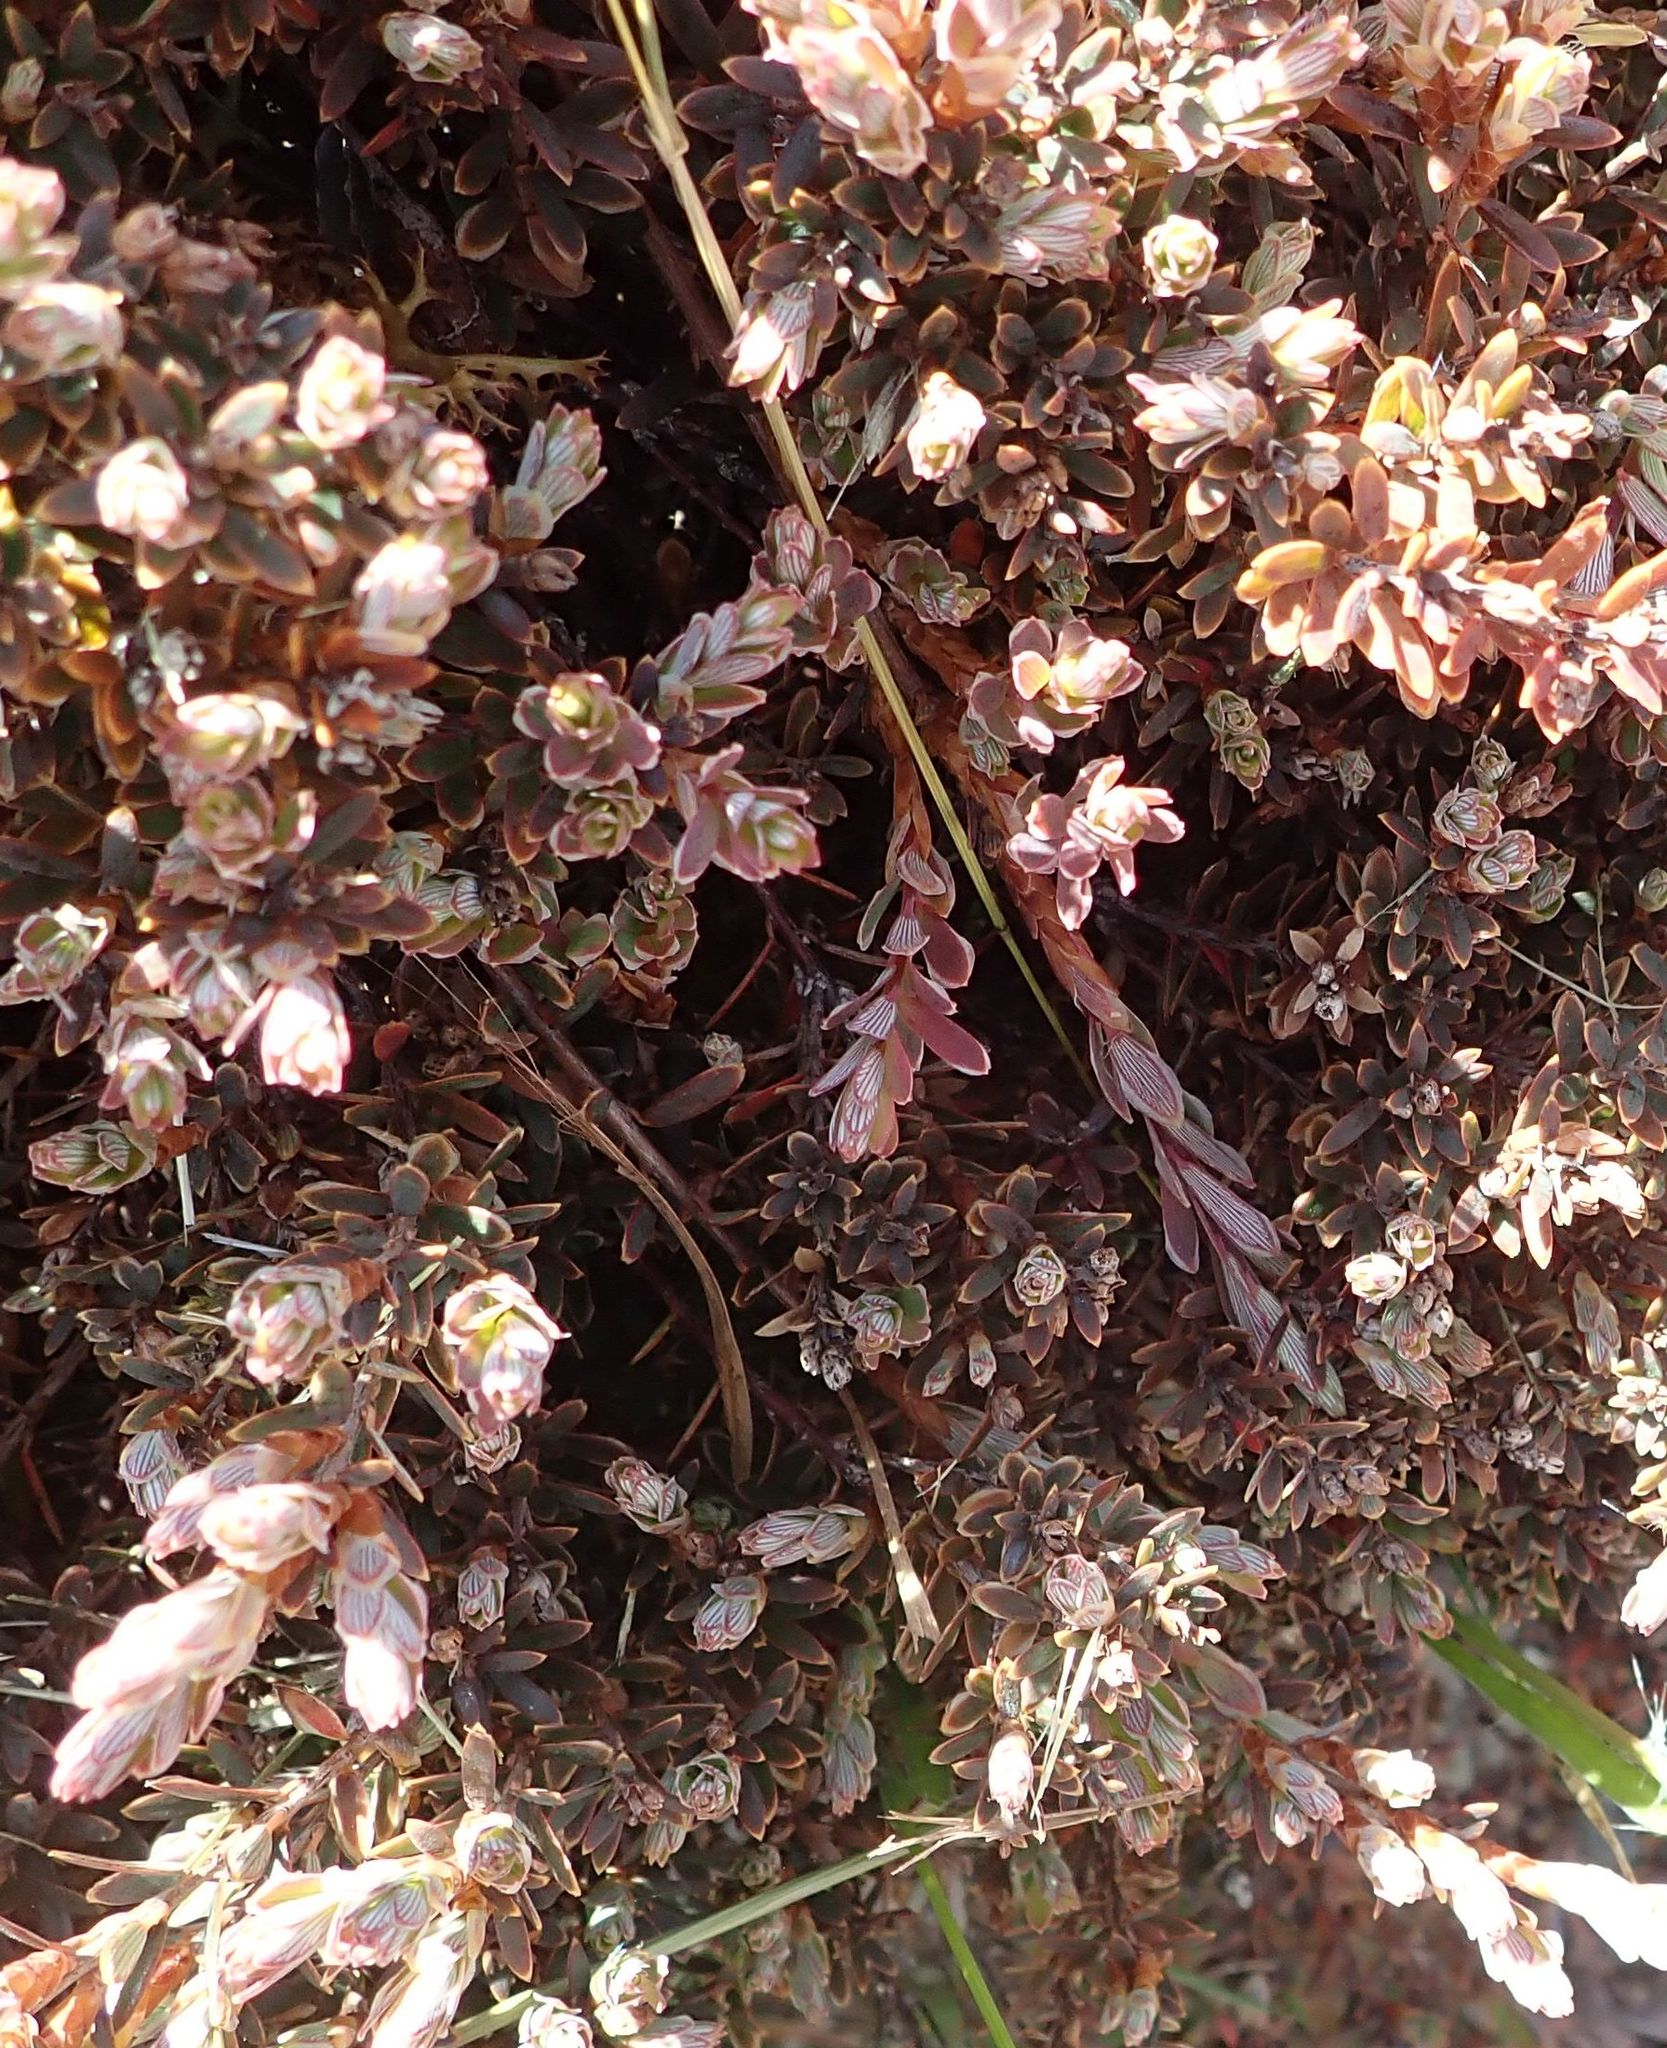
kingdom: Plantae
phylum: Tracheophyta
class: Magnoliopsida
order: Ericales
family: Ericaceae
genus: Acrothamnus
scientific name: Acrothamnus colensoi
